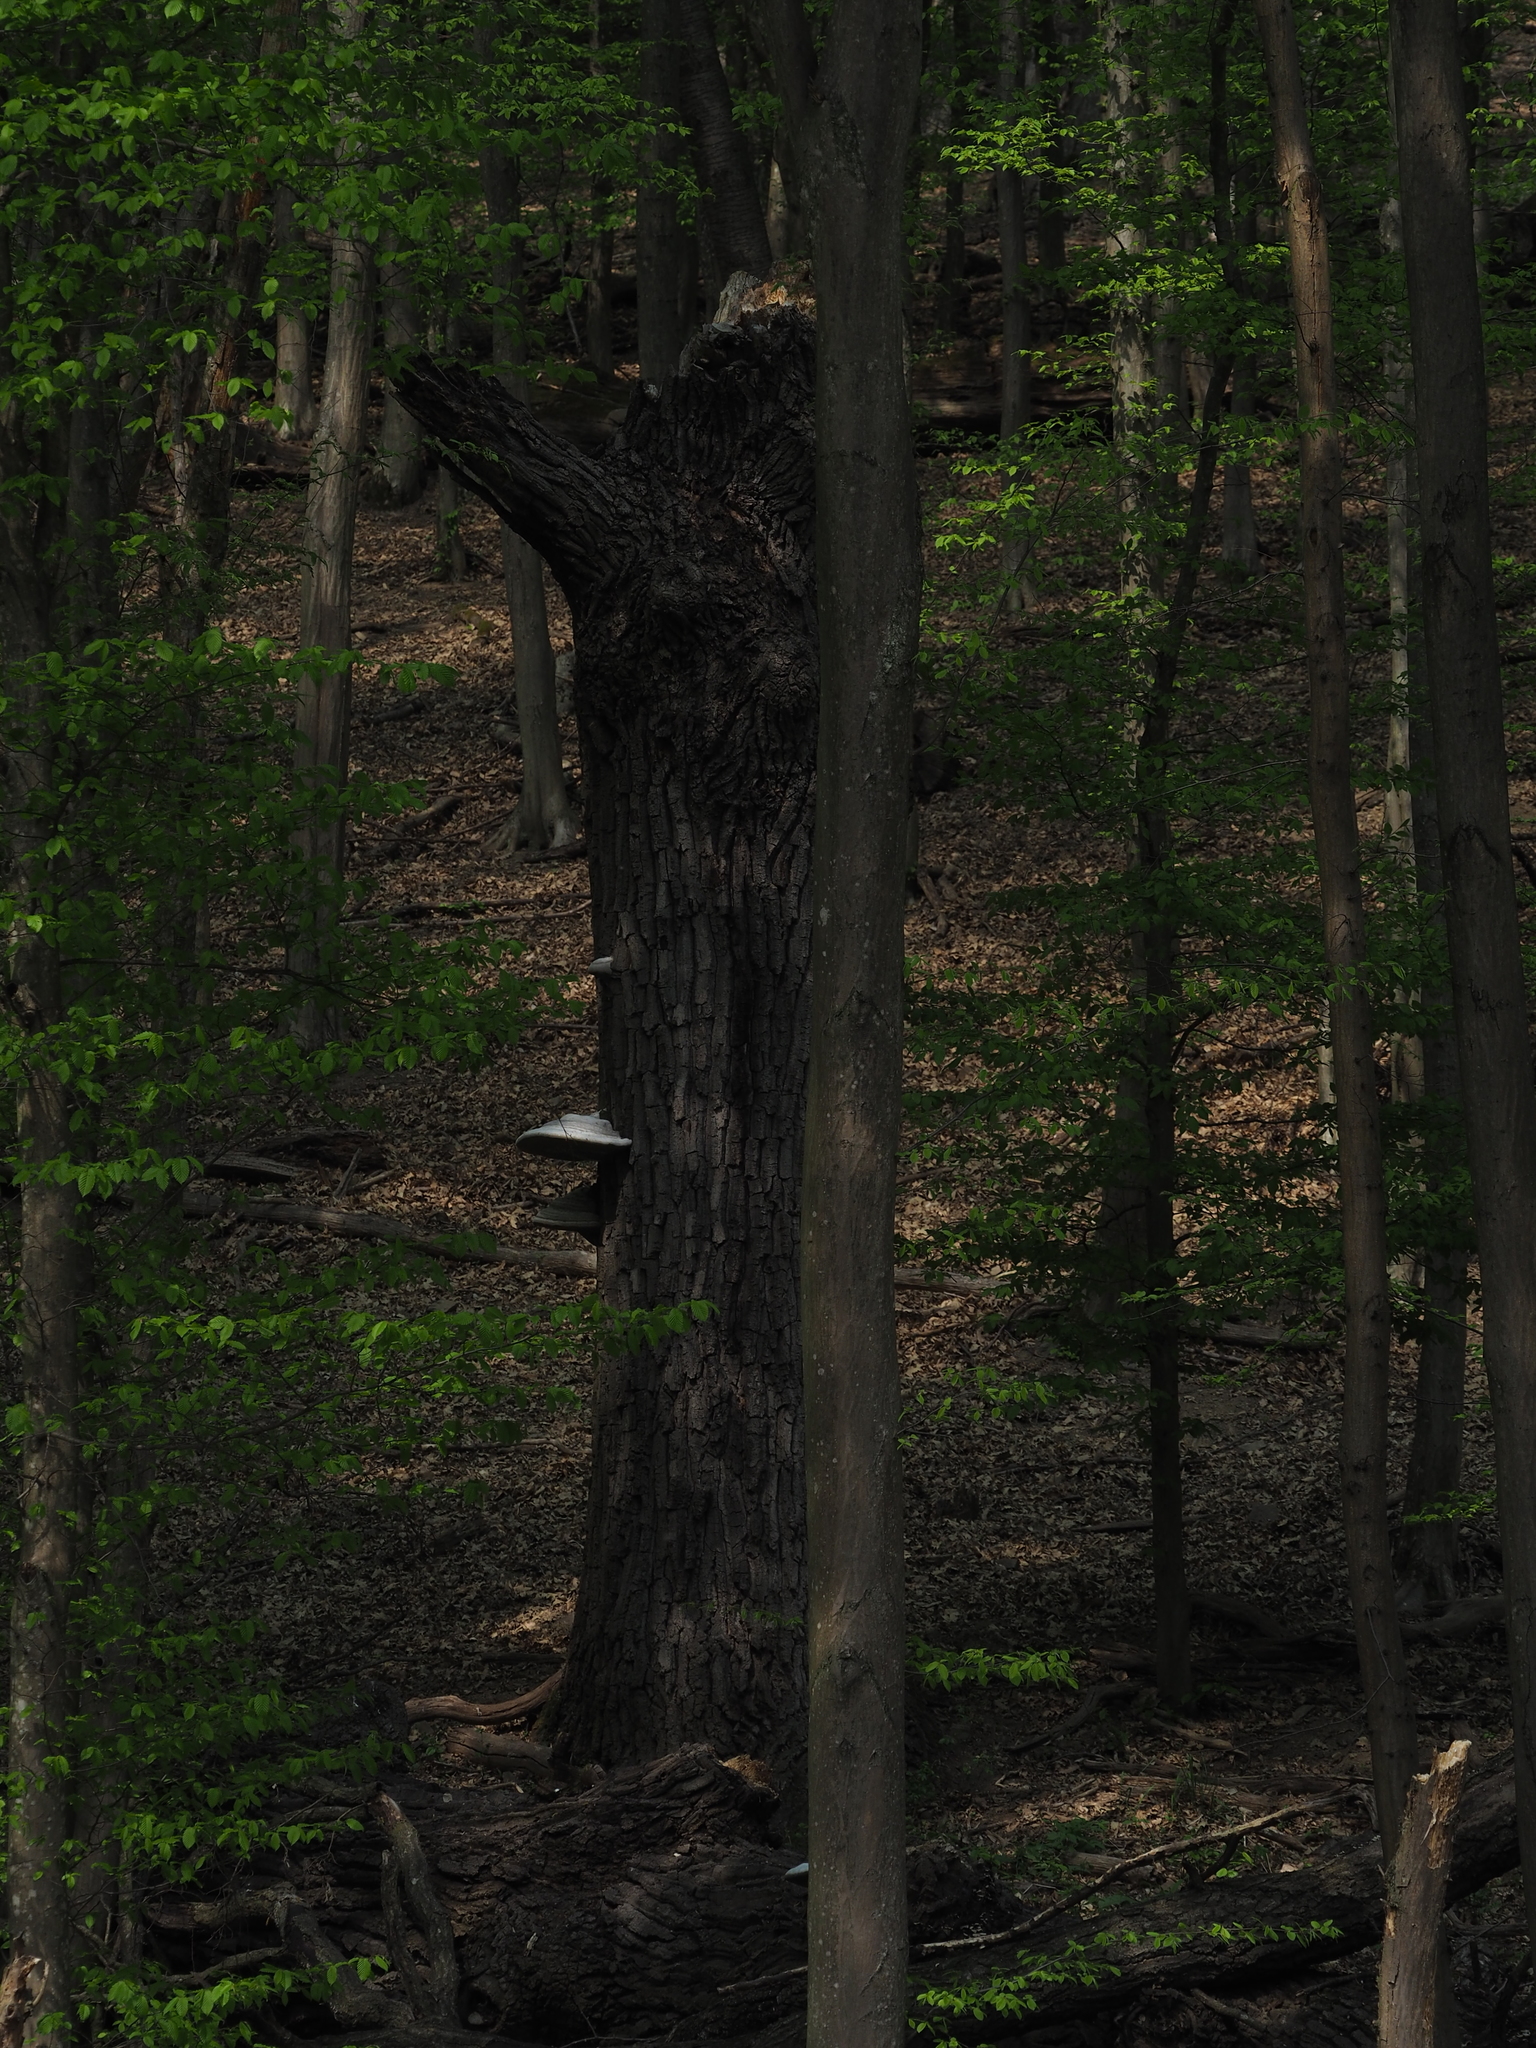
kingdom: Fungi
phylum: Basidiomycota
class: Agaricomycetes
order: Polyporales
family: Polyporaceae
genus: Fomes
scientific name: Fomes fomentarius
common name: Hoof fungus
